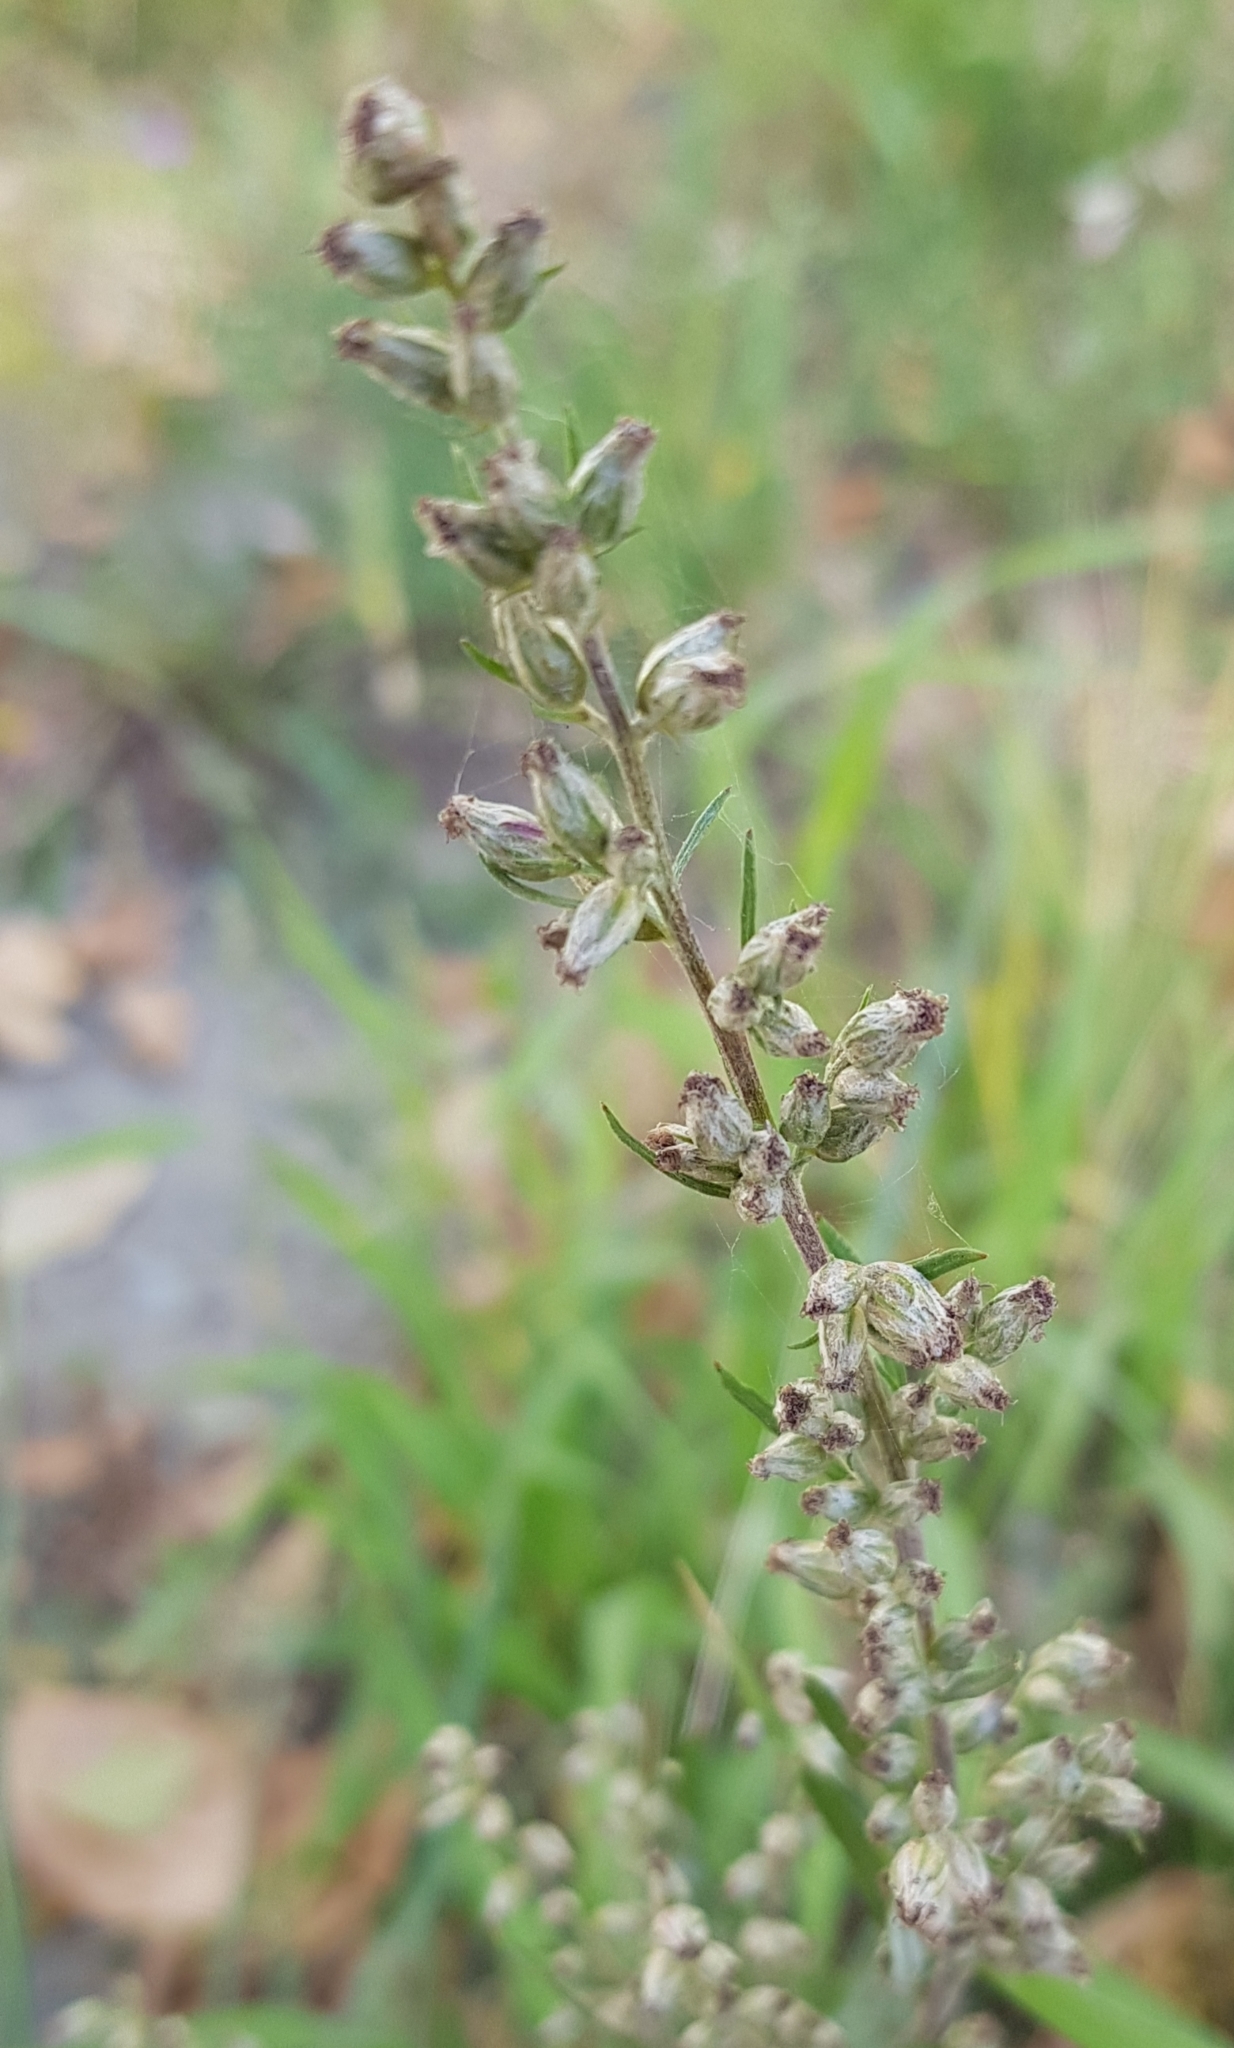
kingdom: Plantae
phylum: Tracheophyta
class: Magnoliopsida
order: Asterales
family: Asteraceae
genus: Artemisia
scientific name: Artemisia vulgaris
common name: Mugwort
